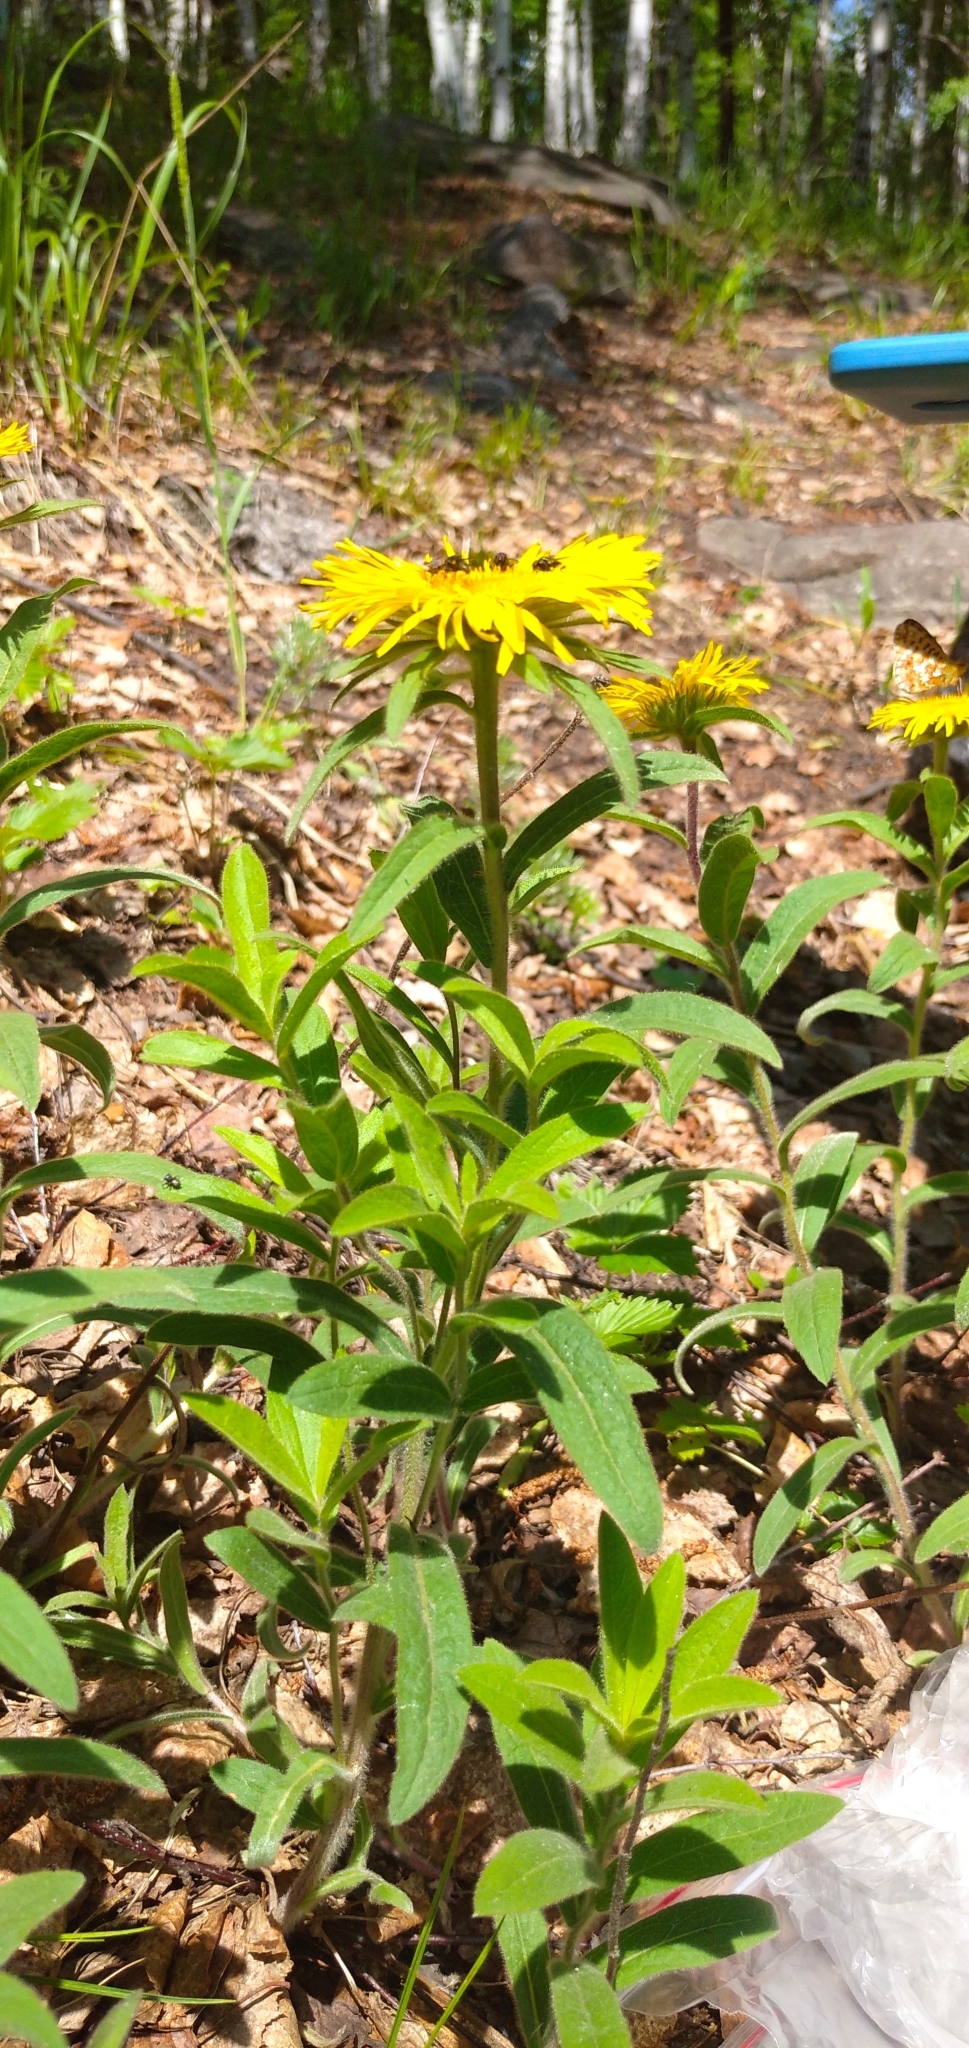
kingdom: Plantae
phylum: Tracheophyta
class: Magnoliopsida
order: Asterales
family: Asteraceae
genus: Pentanema
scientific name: Pentanema hirtum
